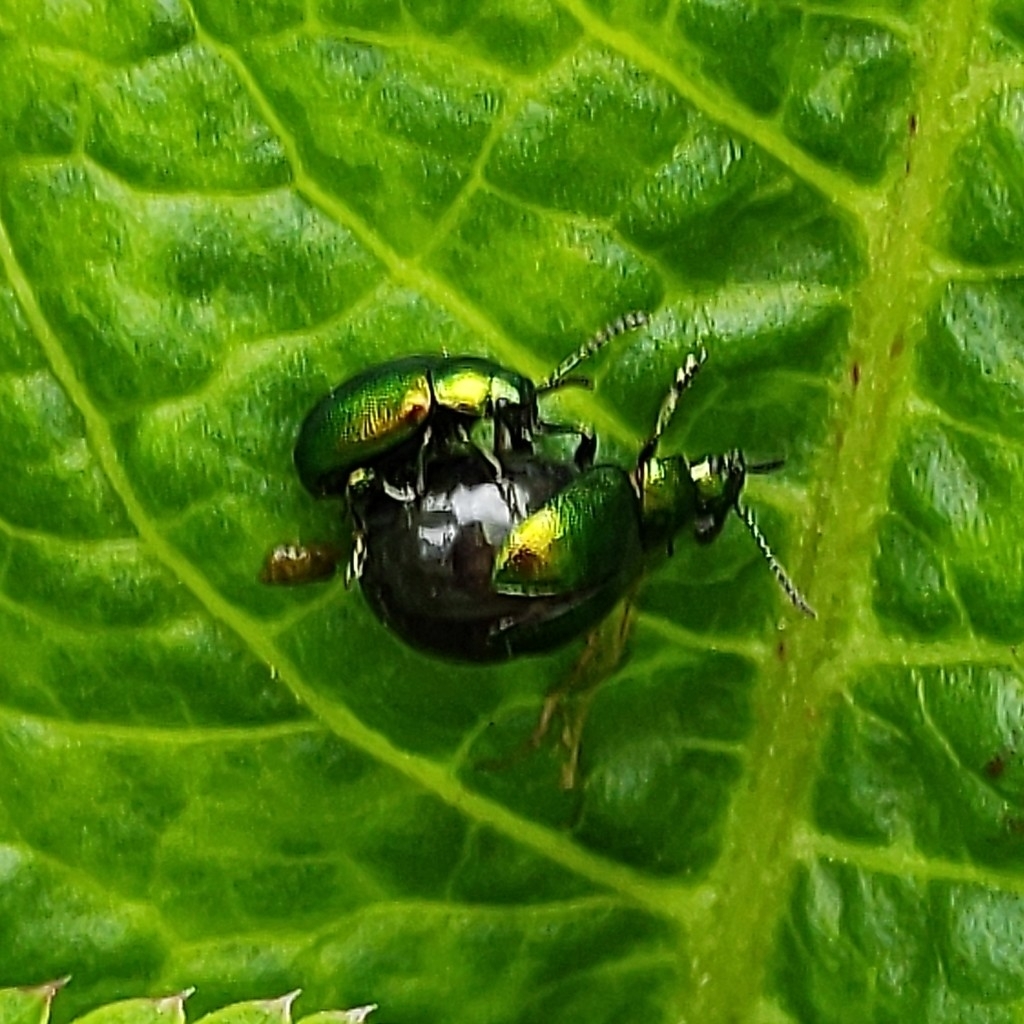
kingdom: Animalia
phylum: Arthropoda
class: Insecta
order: Coleoptera
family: Chrysomelidae
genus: Gastrophysa
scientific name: Gastrophysa viridula
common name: Green dock beetle
